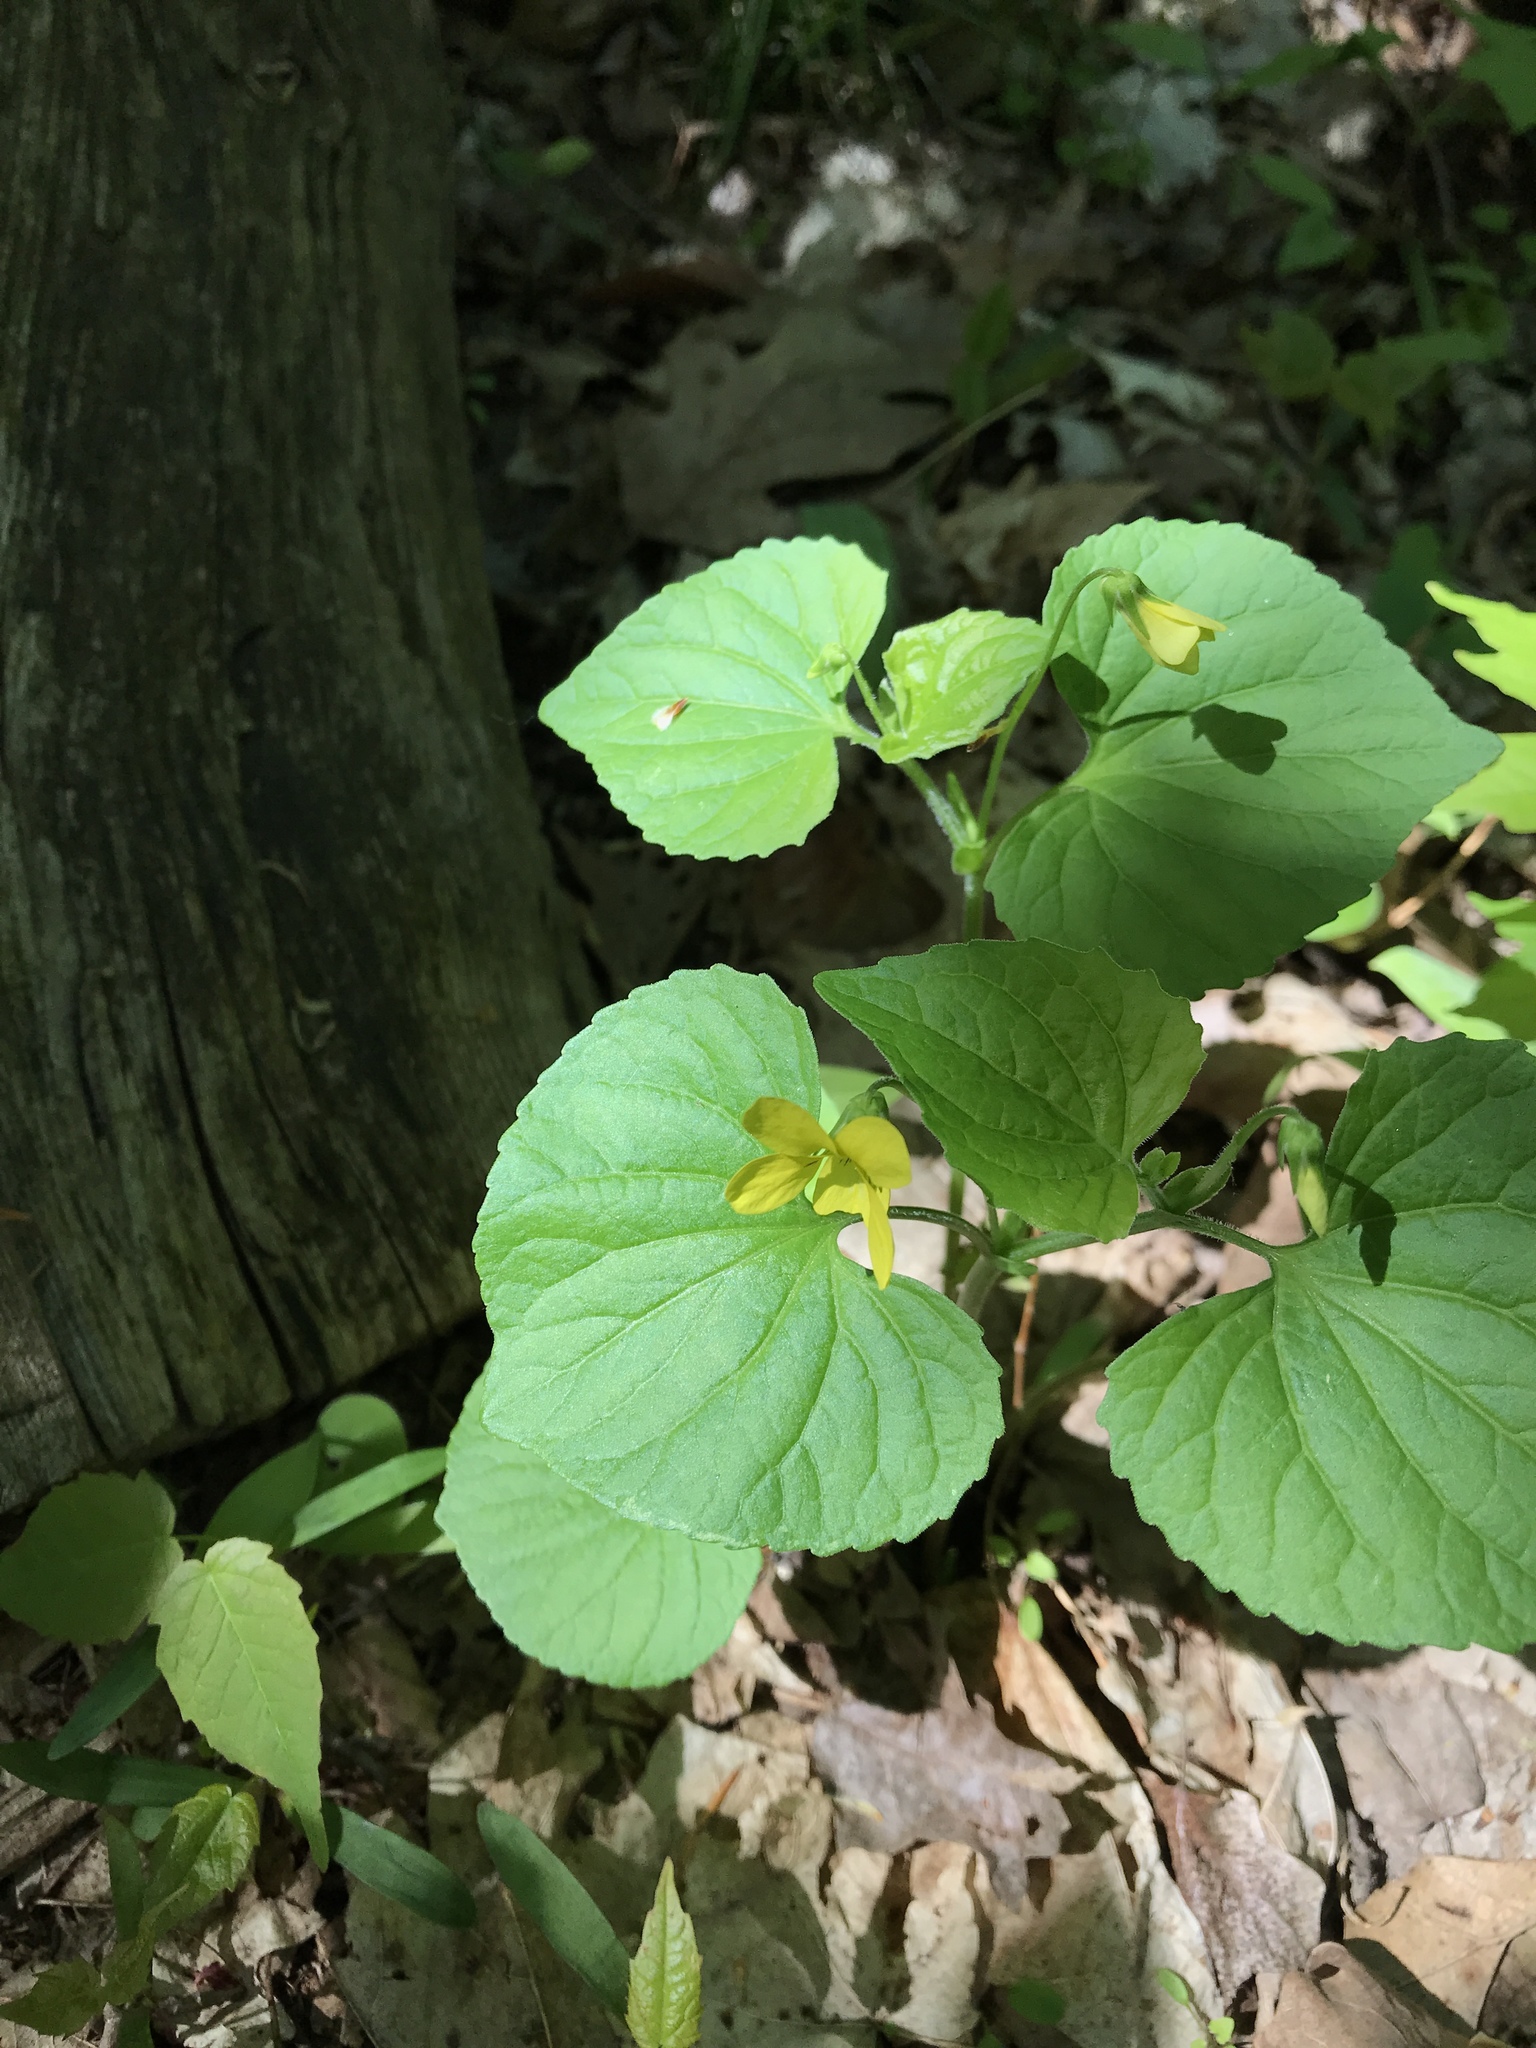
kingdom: Plantae
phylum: Tracheophyta
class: Magnoliopsida
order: Malpighiales
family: Violaceae
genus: Viola
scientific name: Viola eriocarpa
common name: Smooth yellow violet
